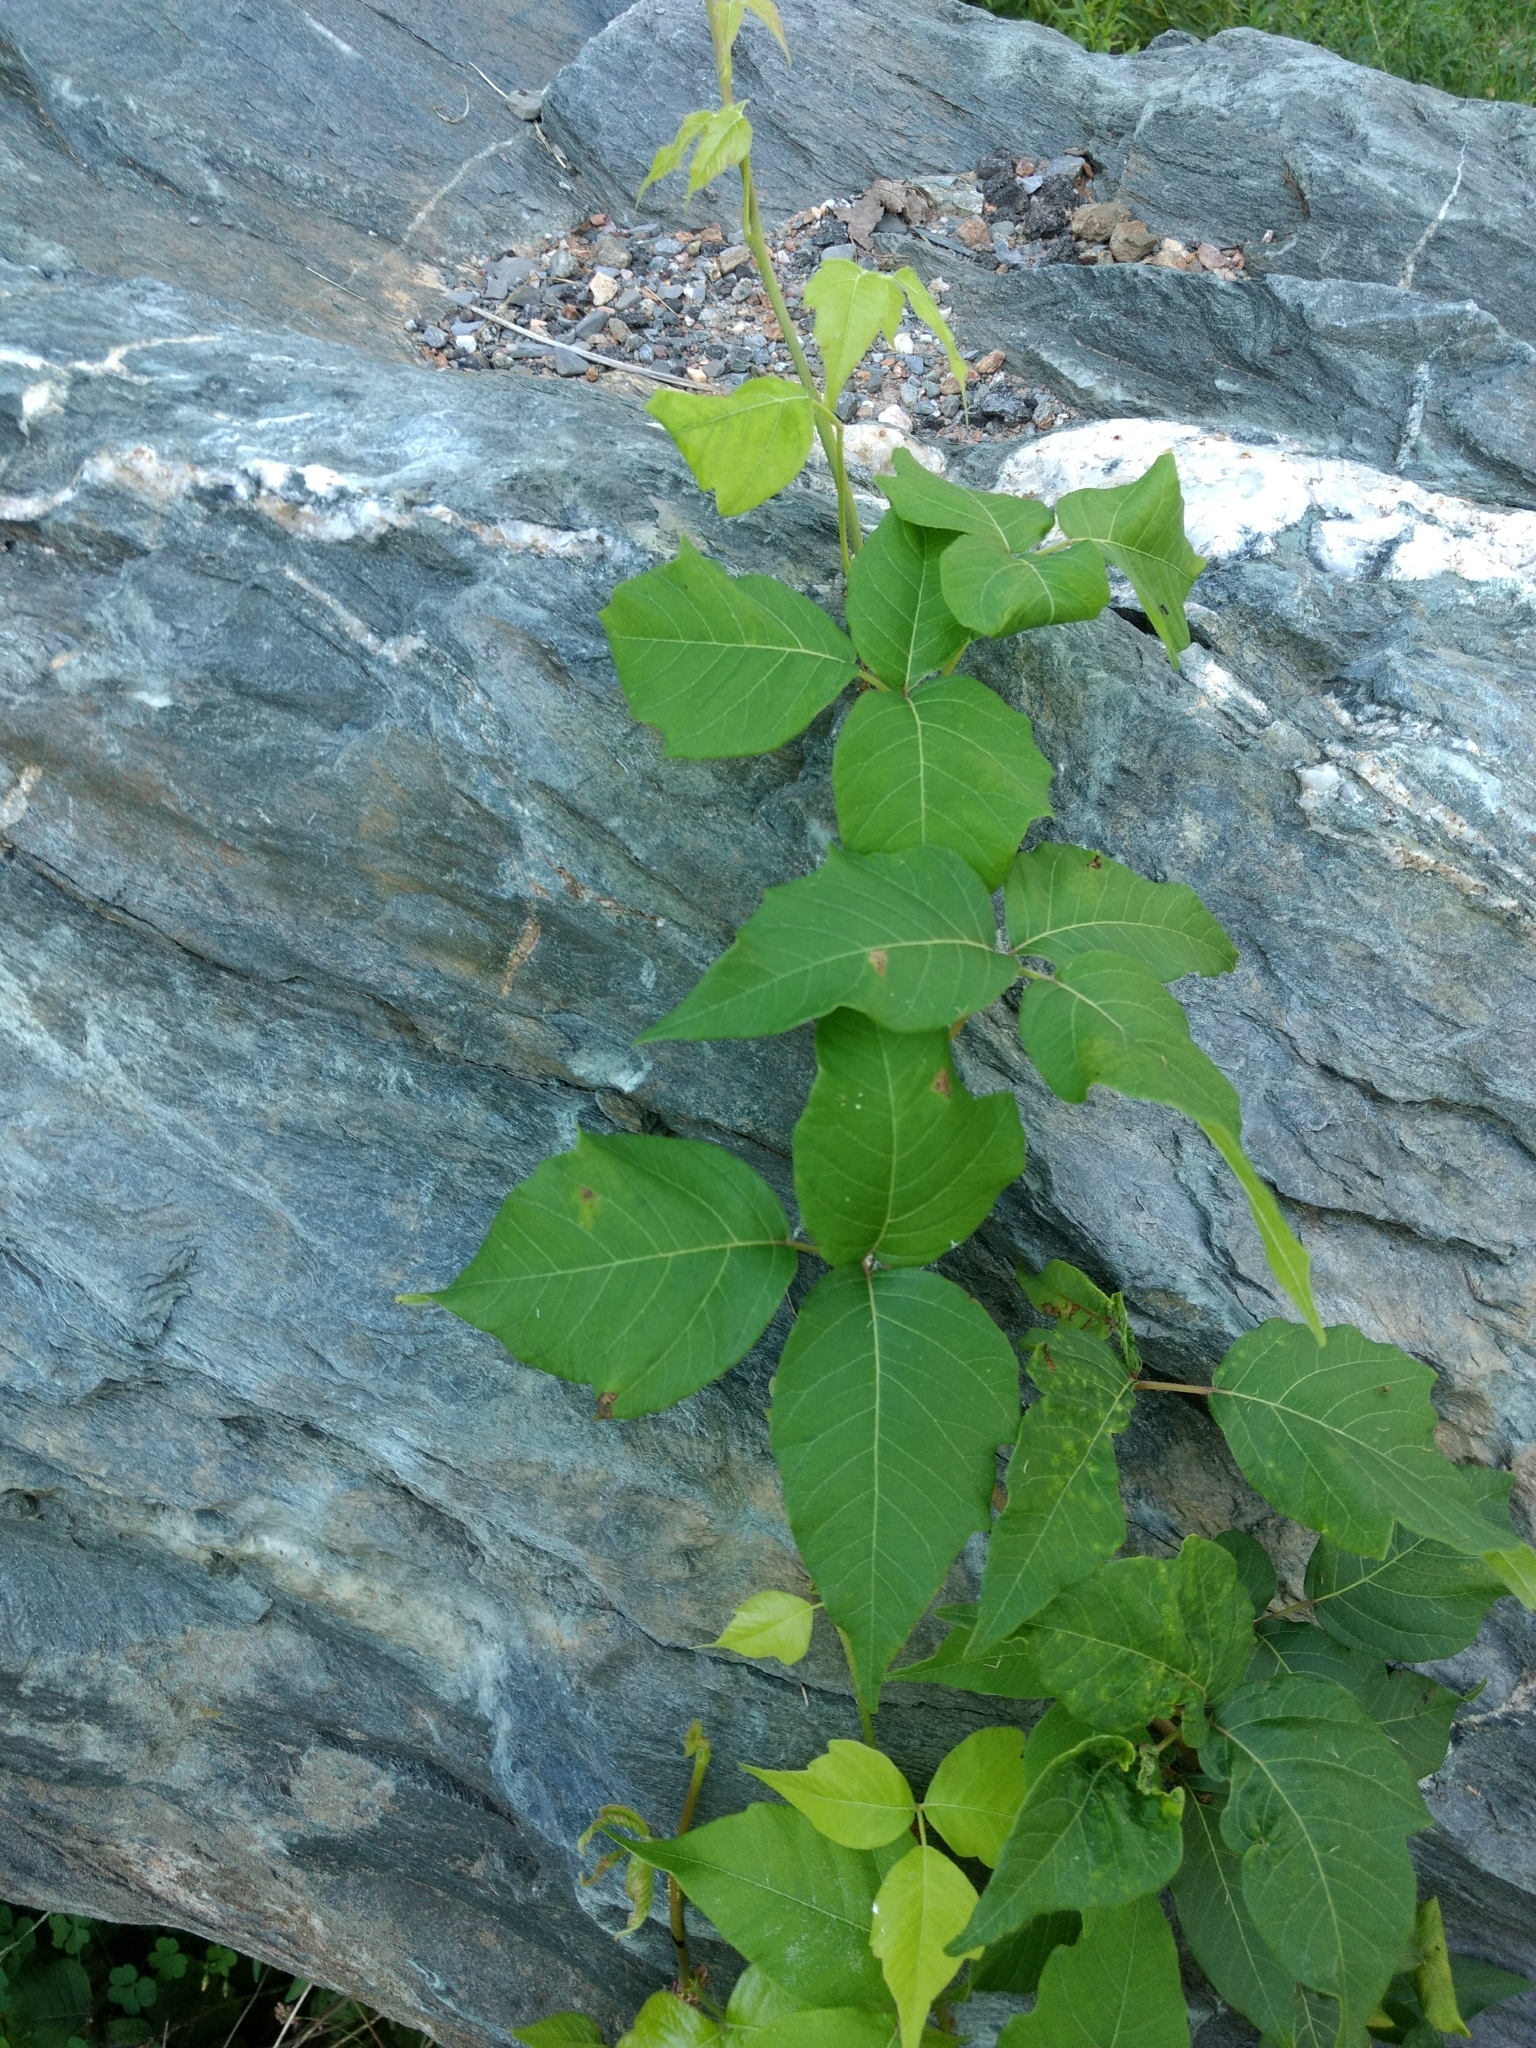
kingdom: Plantae
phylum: Tracheophyta
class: Magnoliopsida
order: Sapindales
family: Anacardiaceae
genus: Toxicodendron
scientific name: Toxicodendron radicans
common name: Poison ivy
